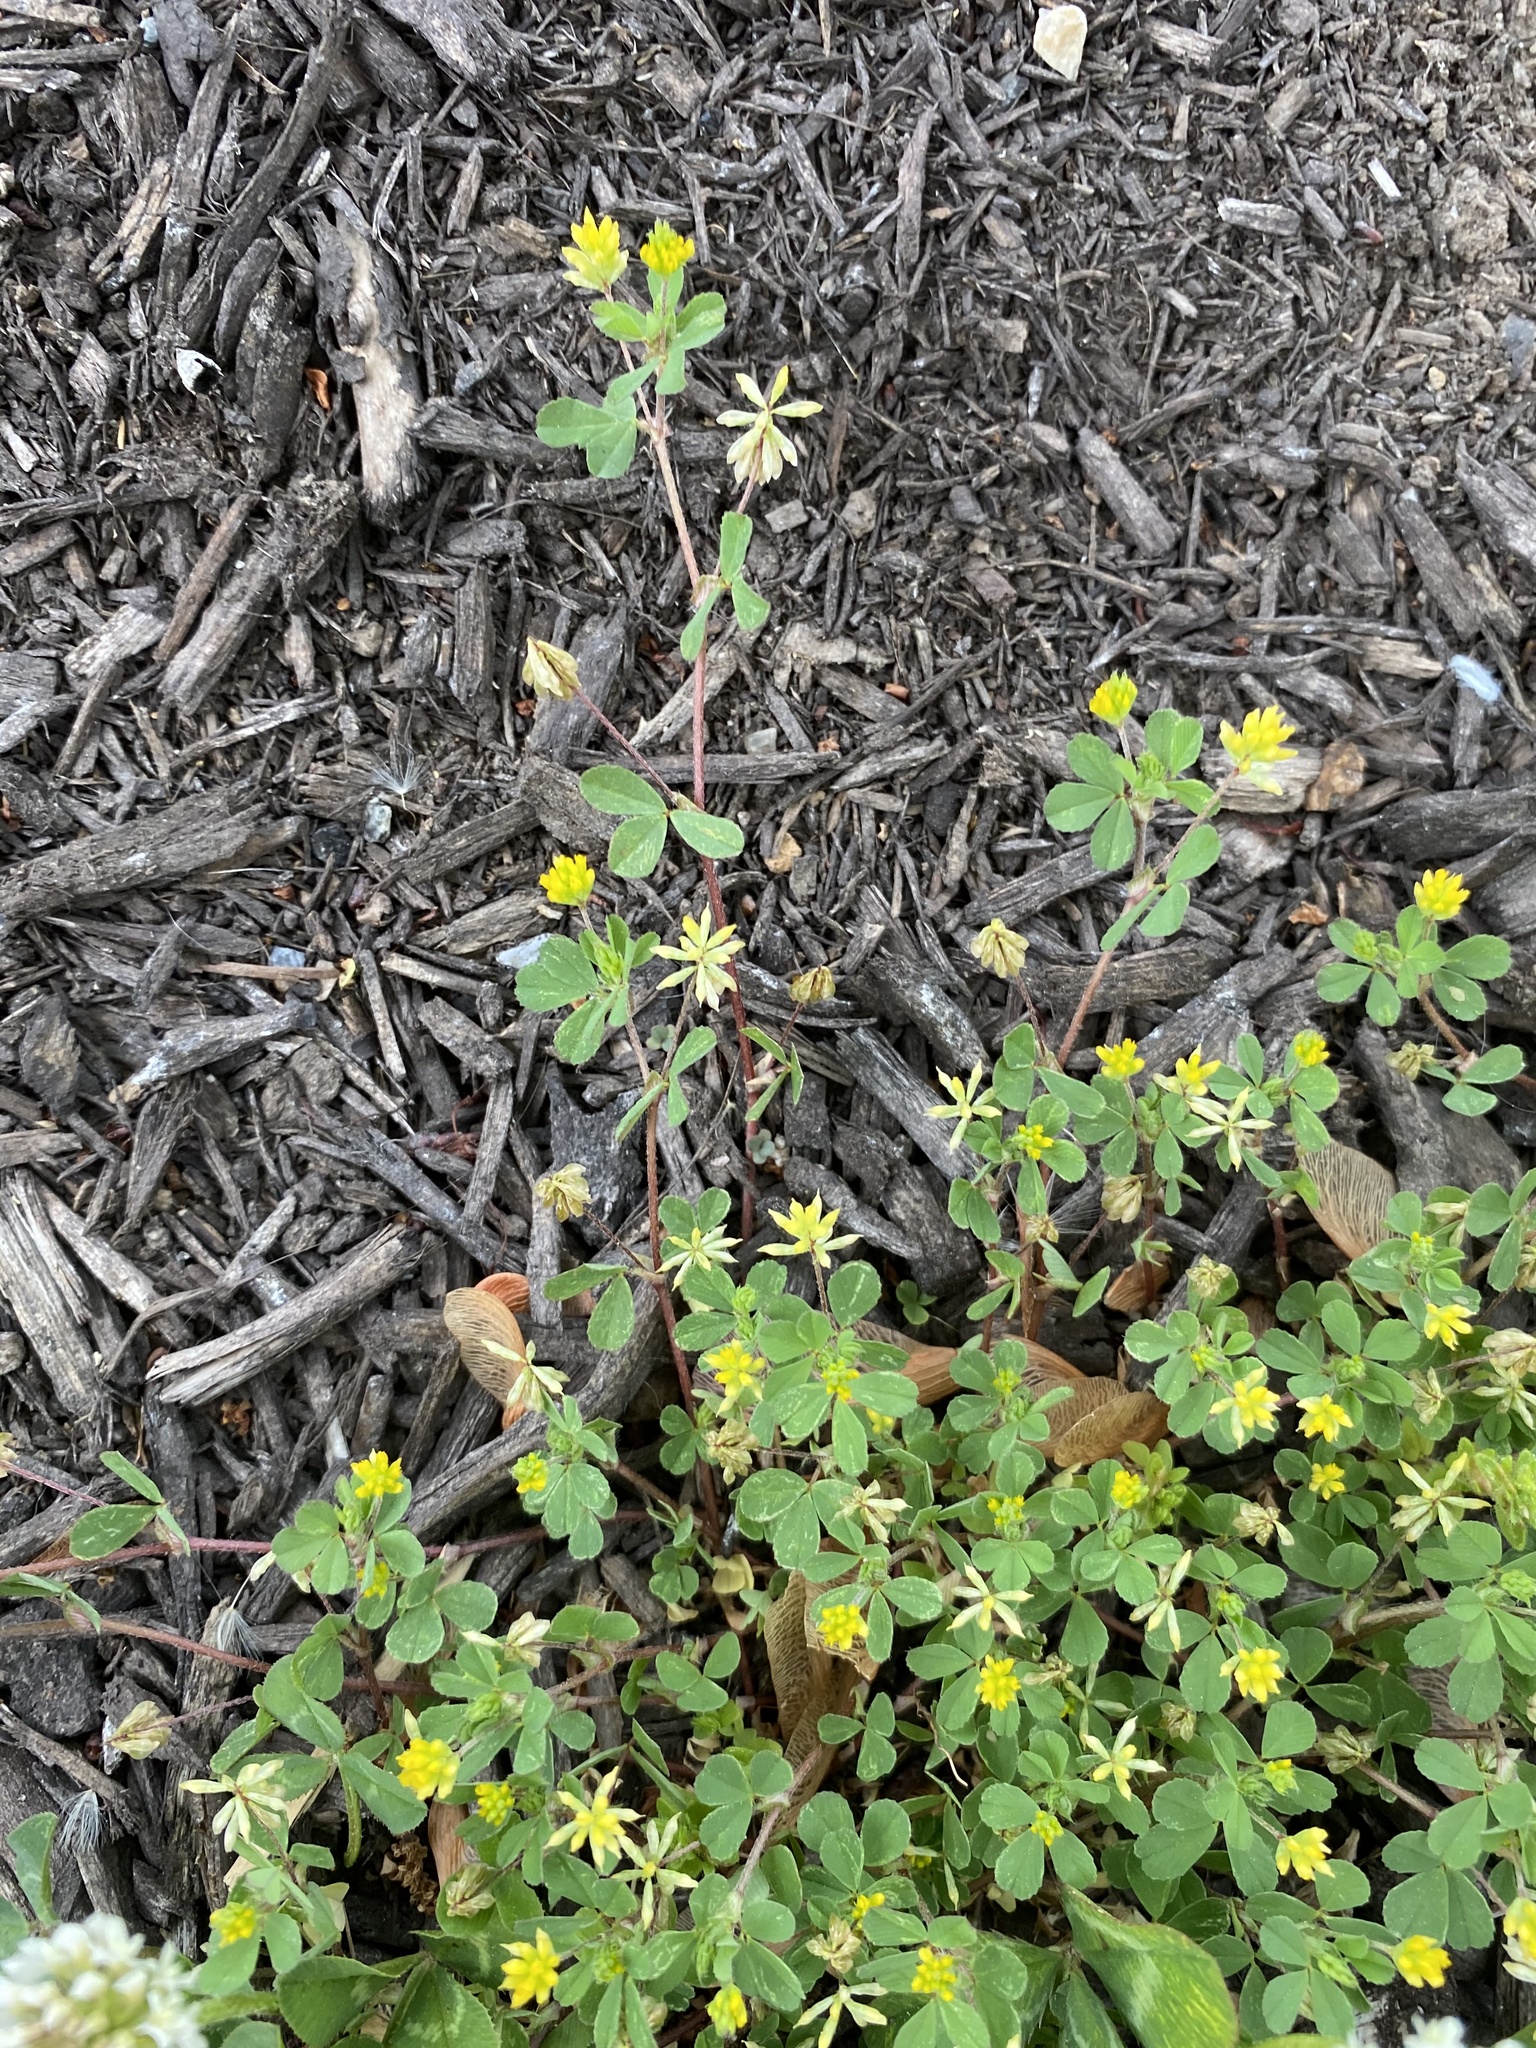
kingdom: Plantae
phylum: Tracheophyta
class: Magnoliopsida
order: Fabales
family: Fabaceae
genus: Trifolium
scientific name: Trifolium dubium
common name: Suckling clover
